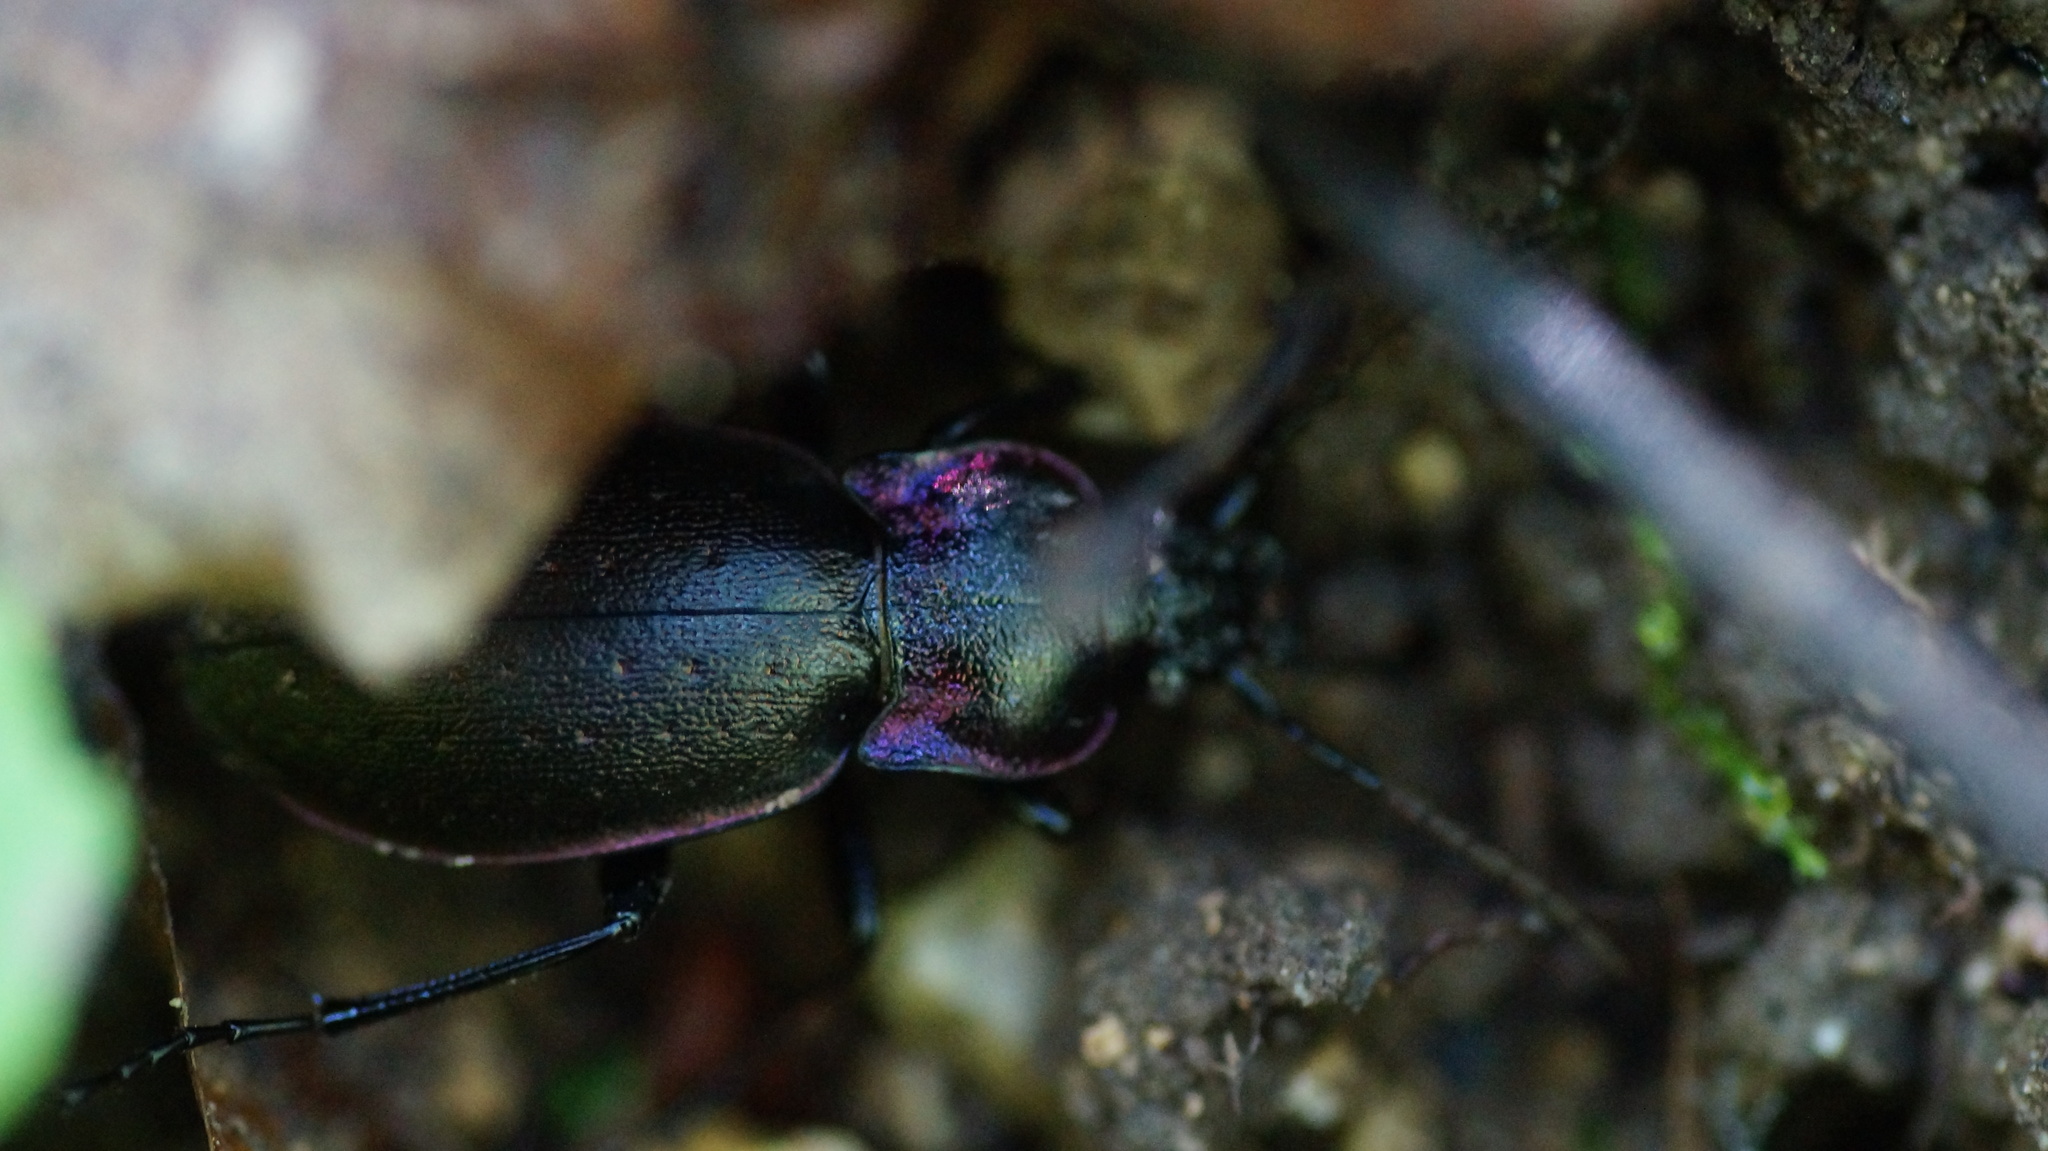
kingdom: Animalia
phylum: Arthropoda
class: Insecta
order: Coleoptera
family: Carabidae
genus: Carabus
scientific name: Carabus nemoralis
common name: European ground beetle
